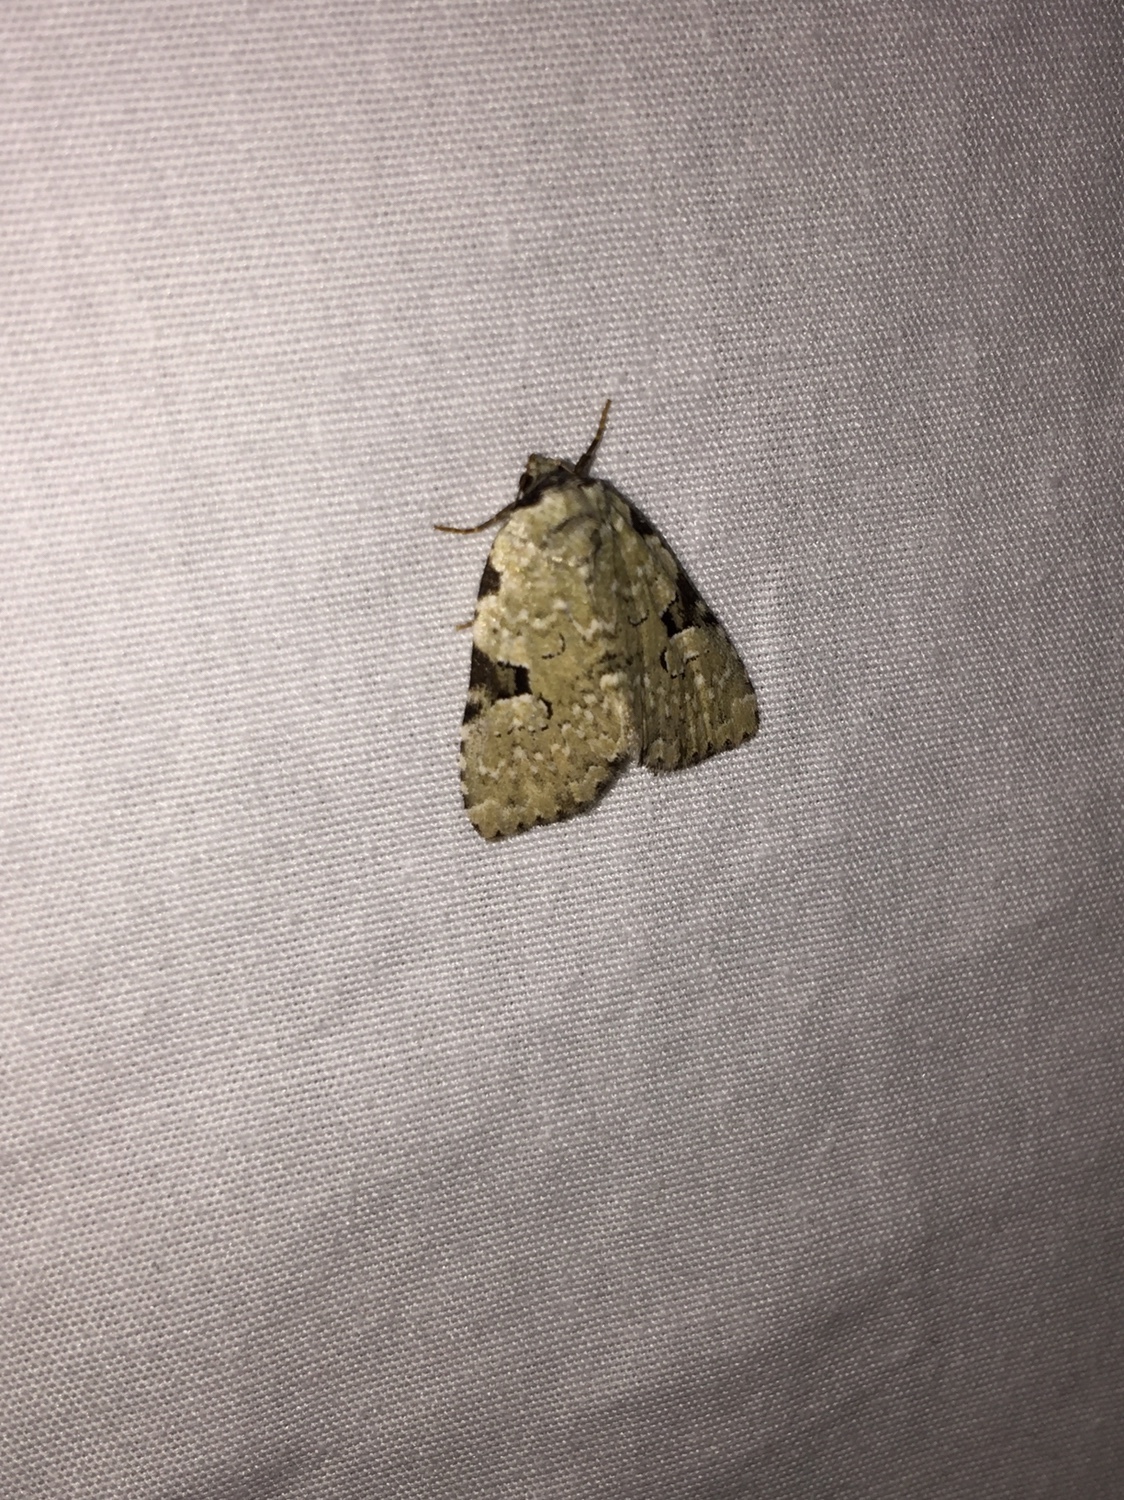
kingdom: Animalia
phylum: Arthropoda
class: Insecta
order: Lepidoptera
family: Noctuidae
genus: Leuconycta
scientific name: Leuconycta diphteroides
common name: Green leuconycta moth
